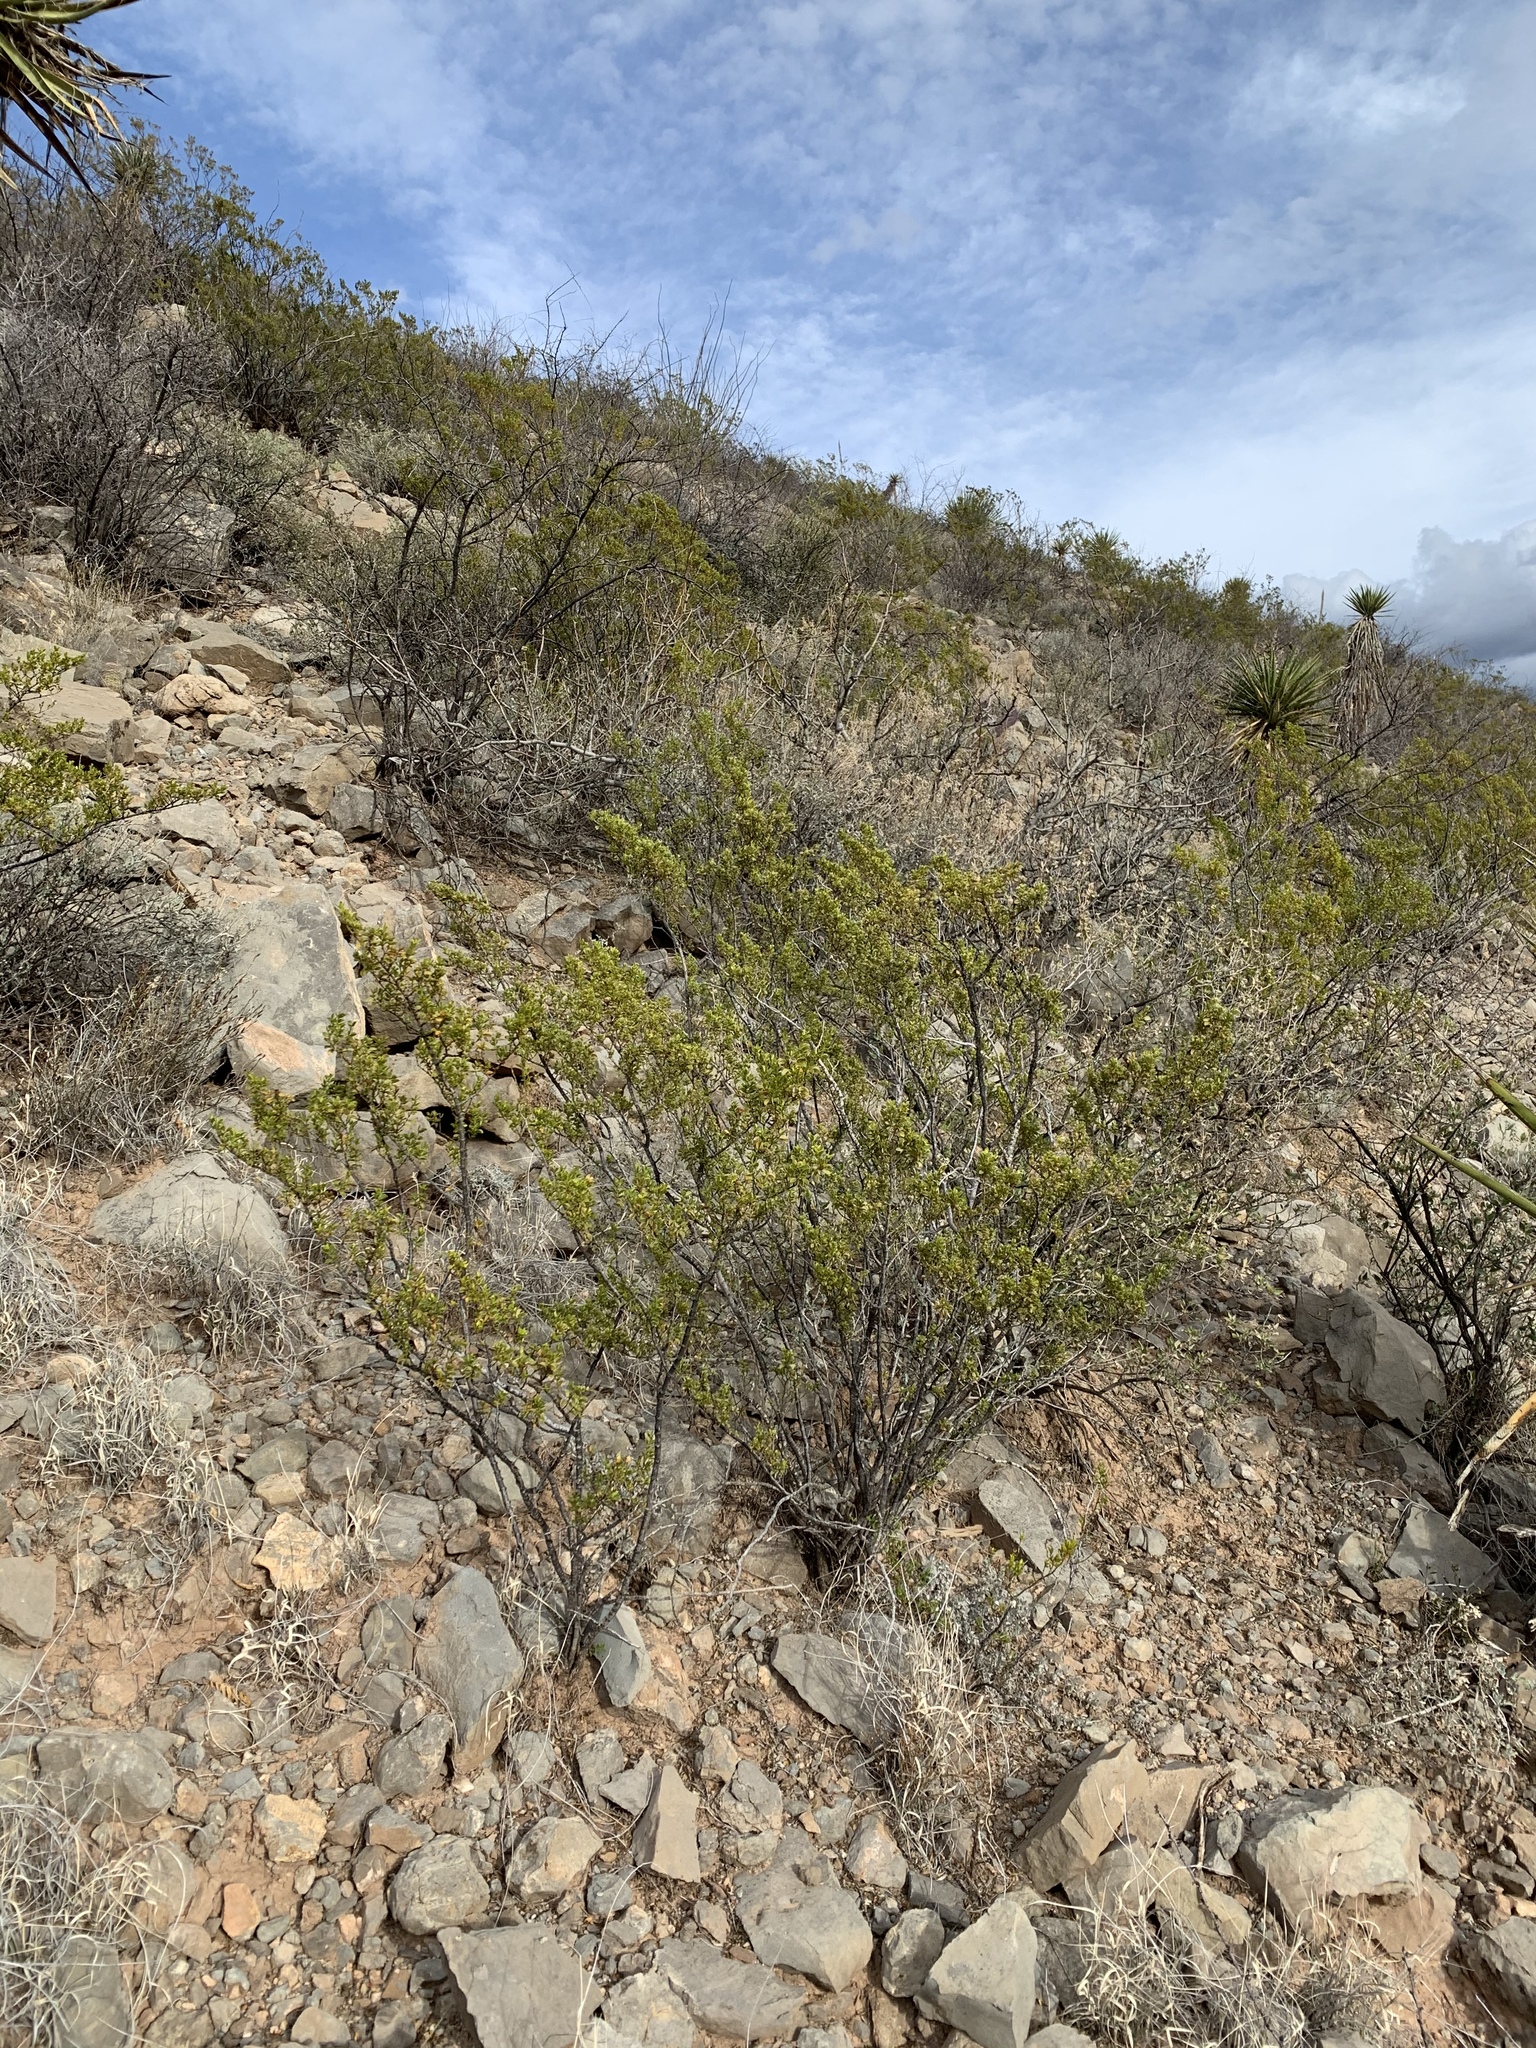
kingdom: Plantae
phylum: Tracheophyta
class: Magnoliopsida
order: Zygophyllales
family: Zygophyllaceae
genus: Larrea
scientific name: Larrea tridentata
